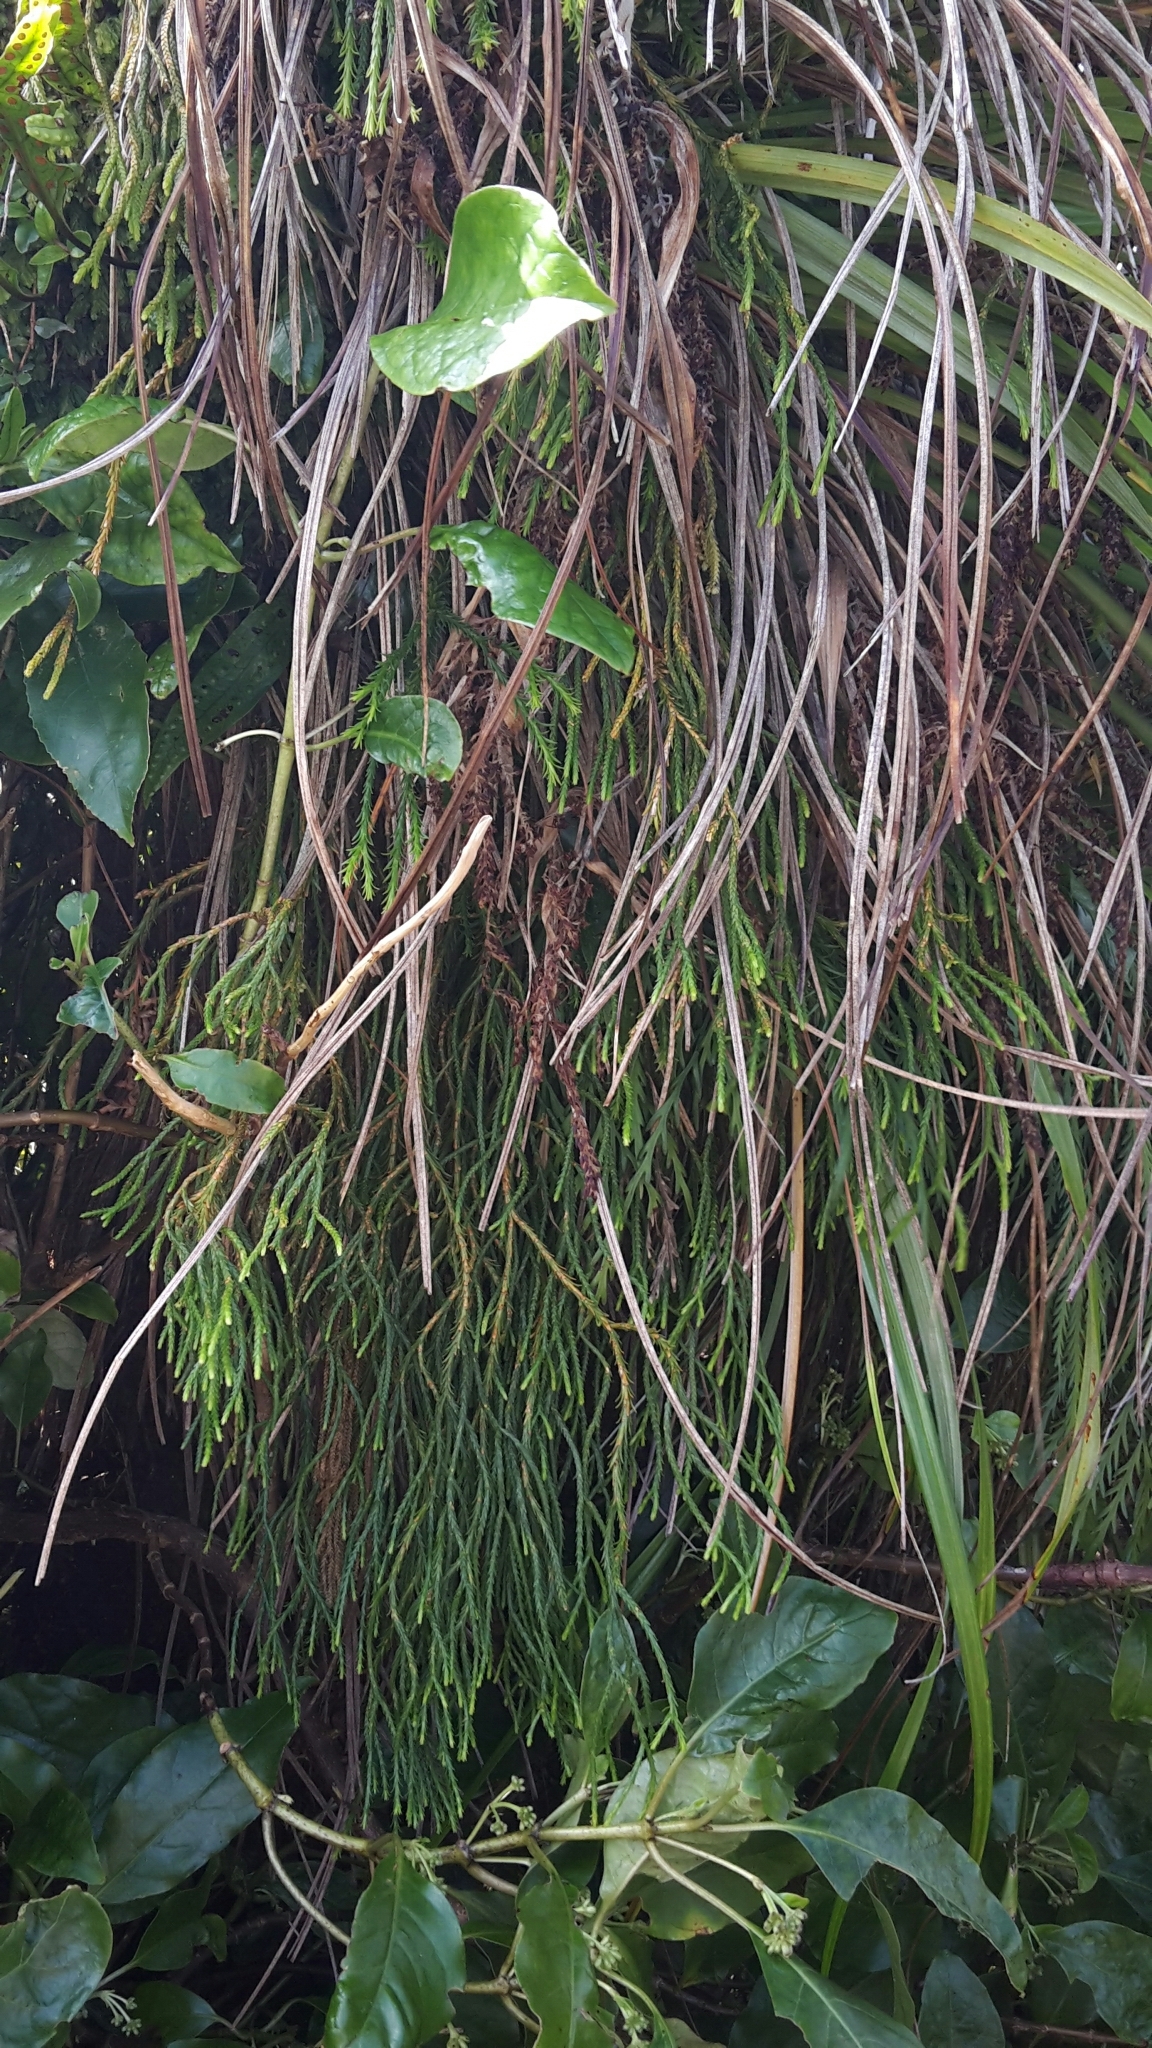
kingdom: Plantae
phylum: Tracheophyta
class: Lycopodiopsida
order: Lycopodiales
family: Lycopodiaceae
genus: Phlegmariurus
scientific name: Phlegmariurus varius
